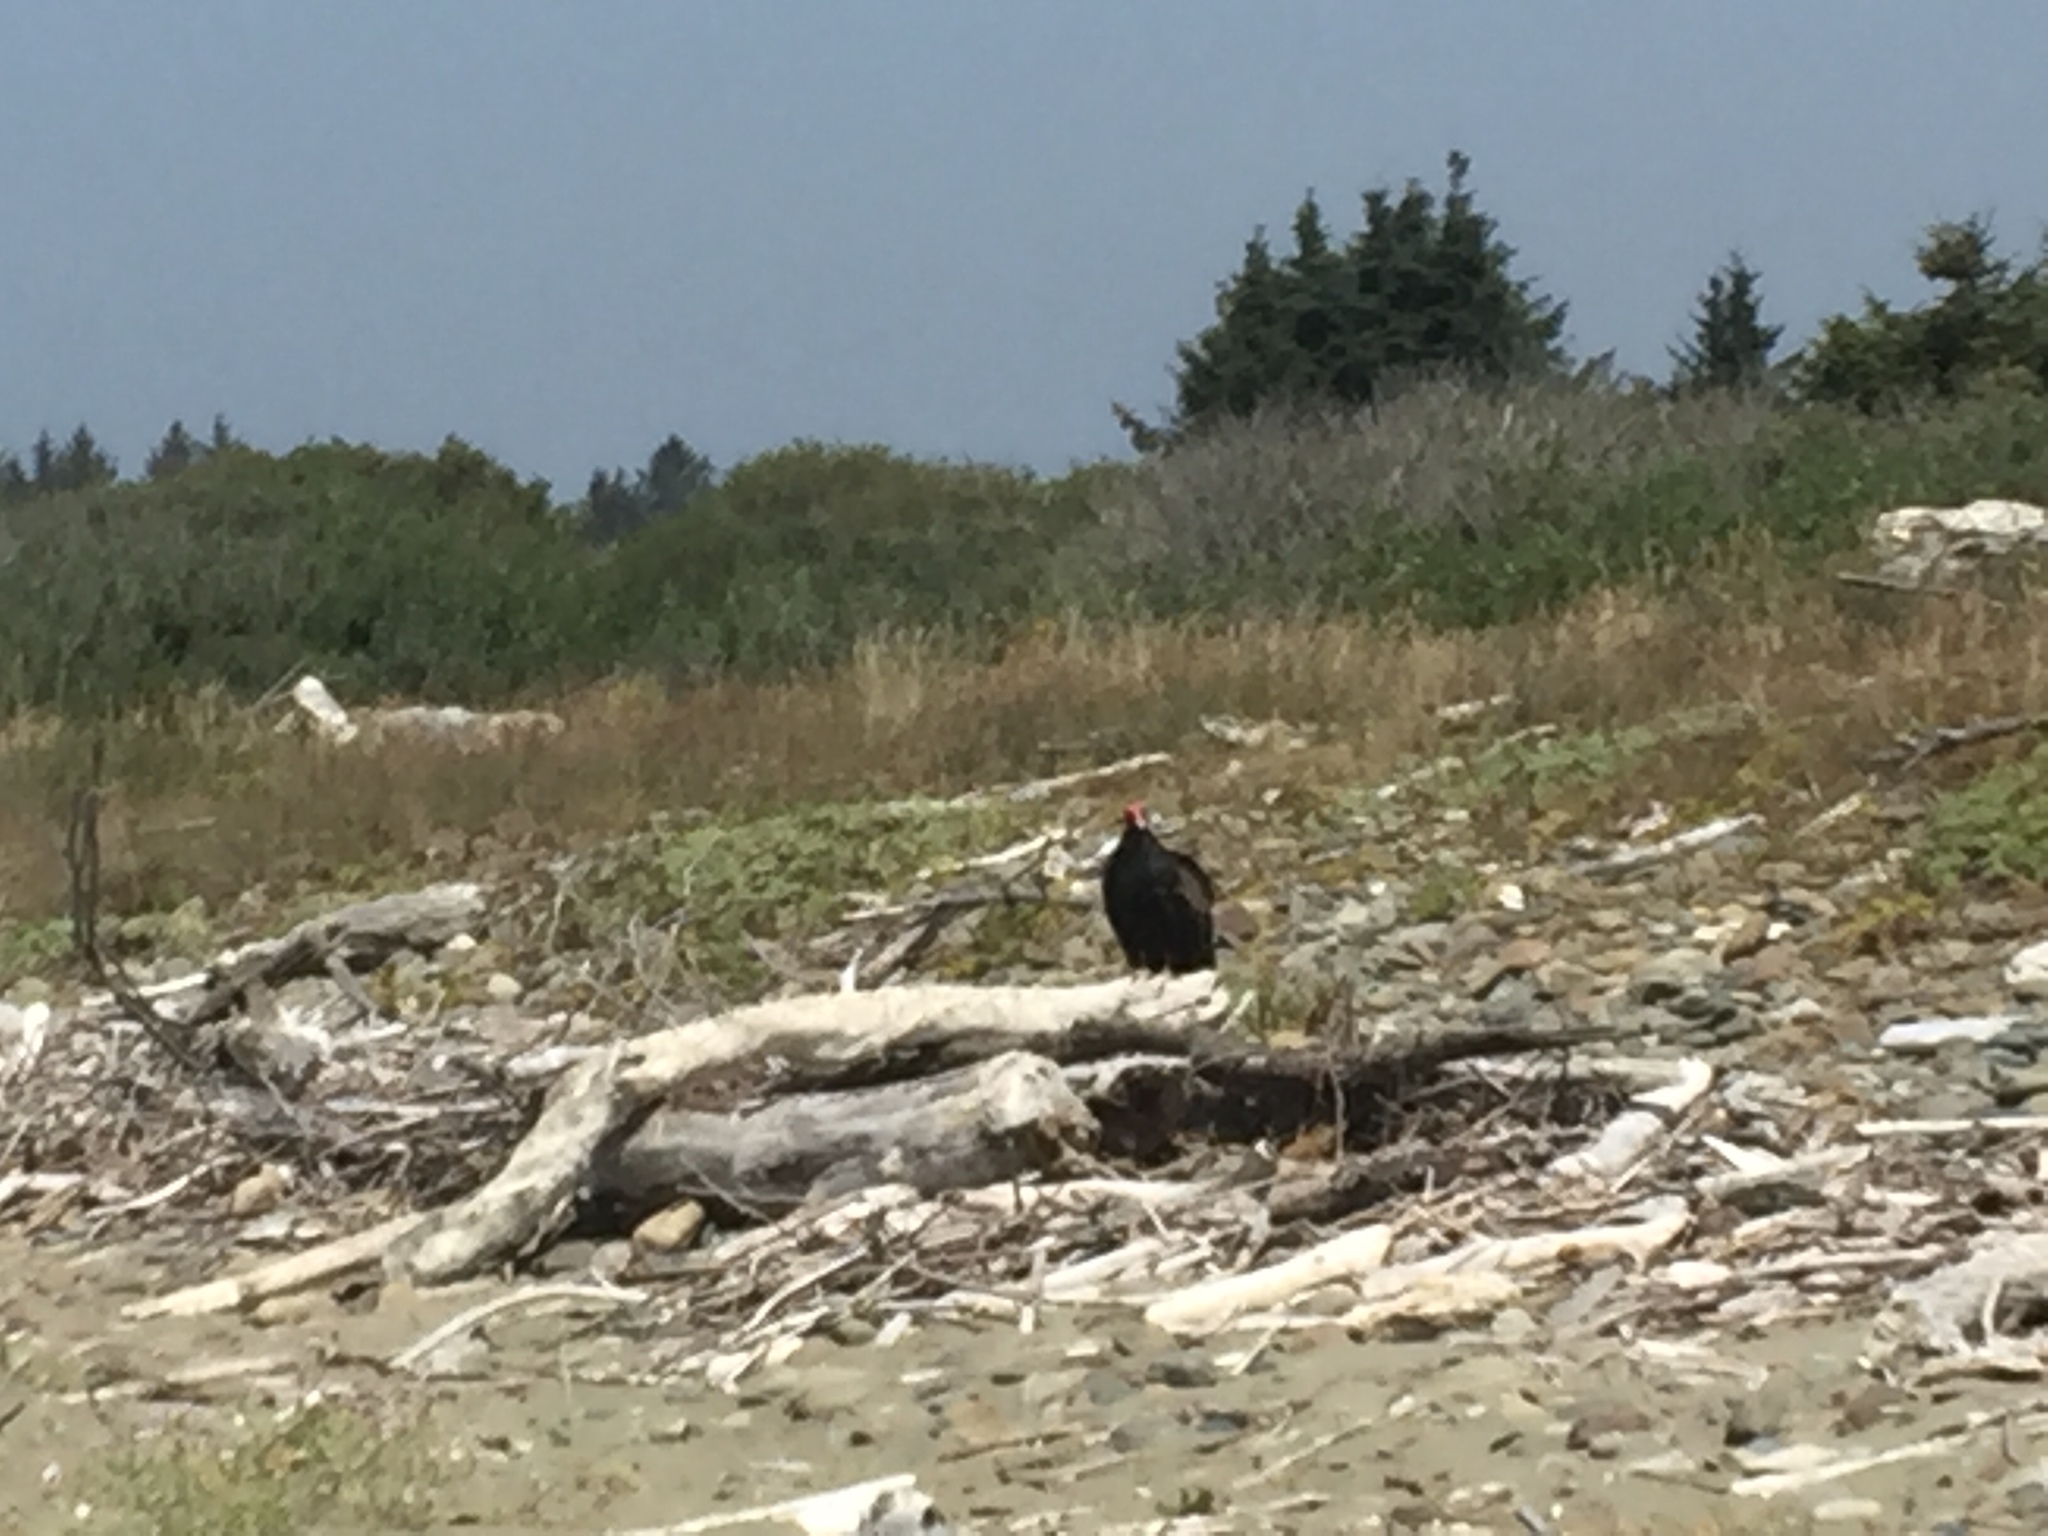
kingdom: Animalia
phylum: Chordata
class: Aves
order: Accipitriformes
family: Cathartidae
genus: Cathartes
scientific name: Cathartes aura
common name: Turkey vulture
